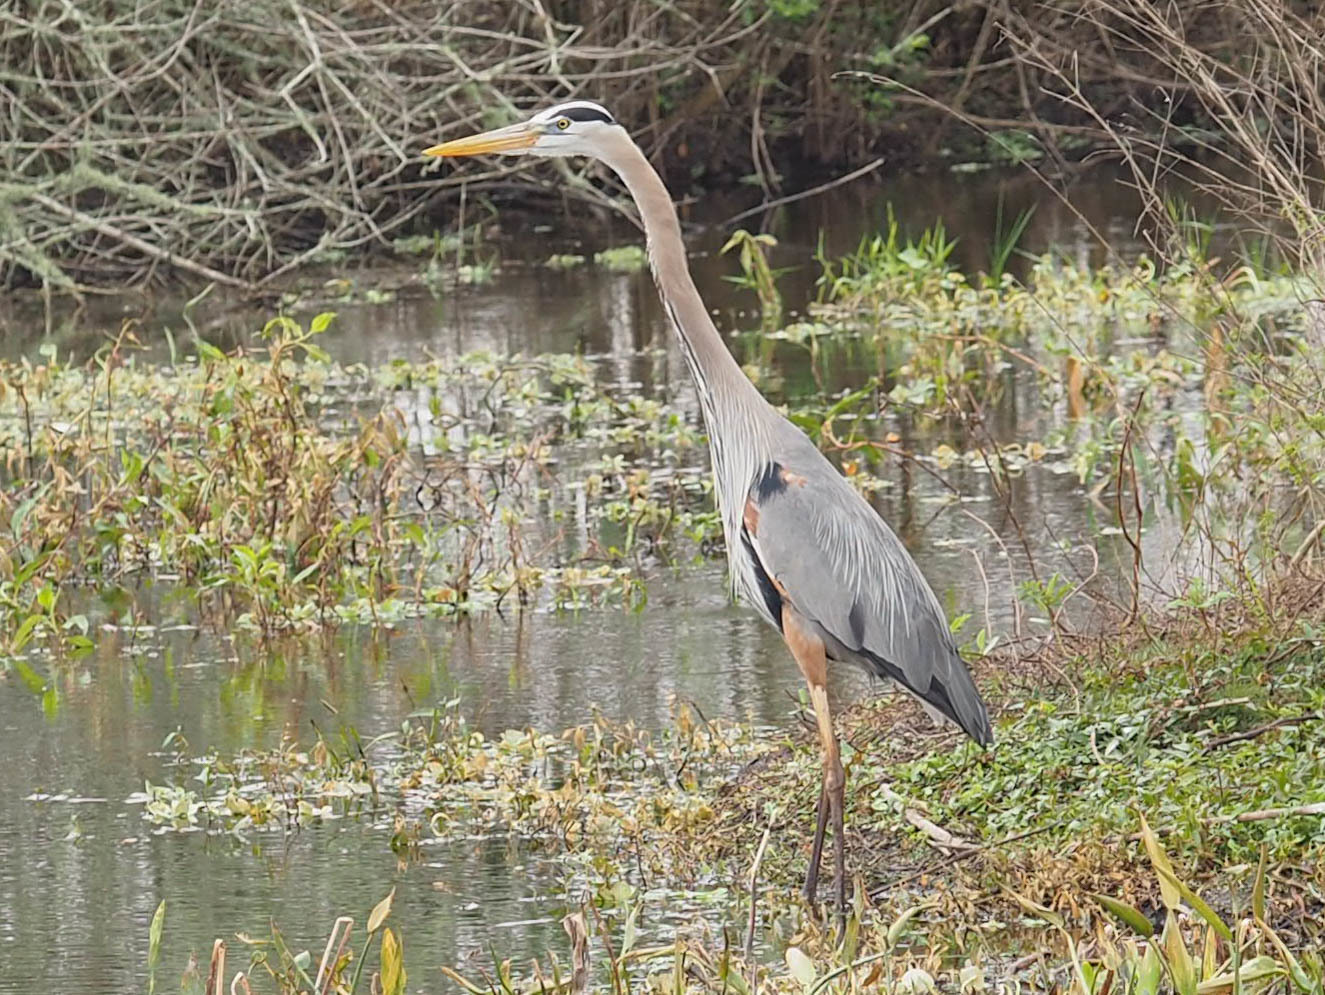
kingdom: Animalia
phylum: Chordata
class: Aves
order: Pelecaniformes
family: Ardeidae
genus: Ardea
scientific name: Ardea herodias
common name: Great blue heron
